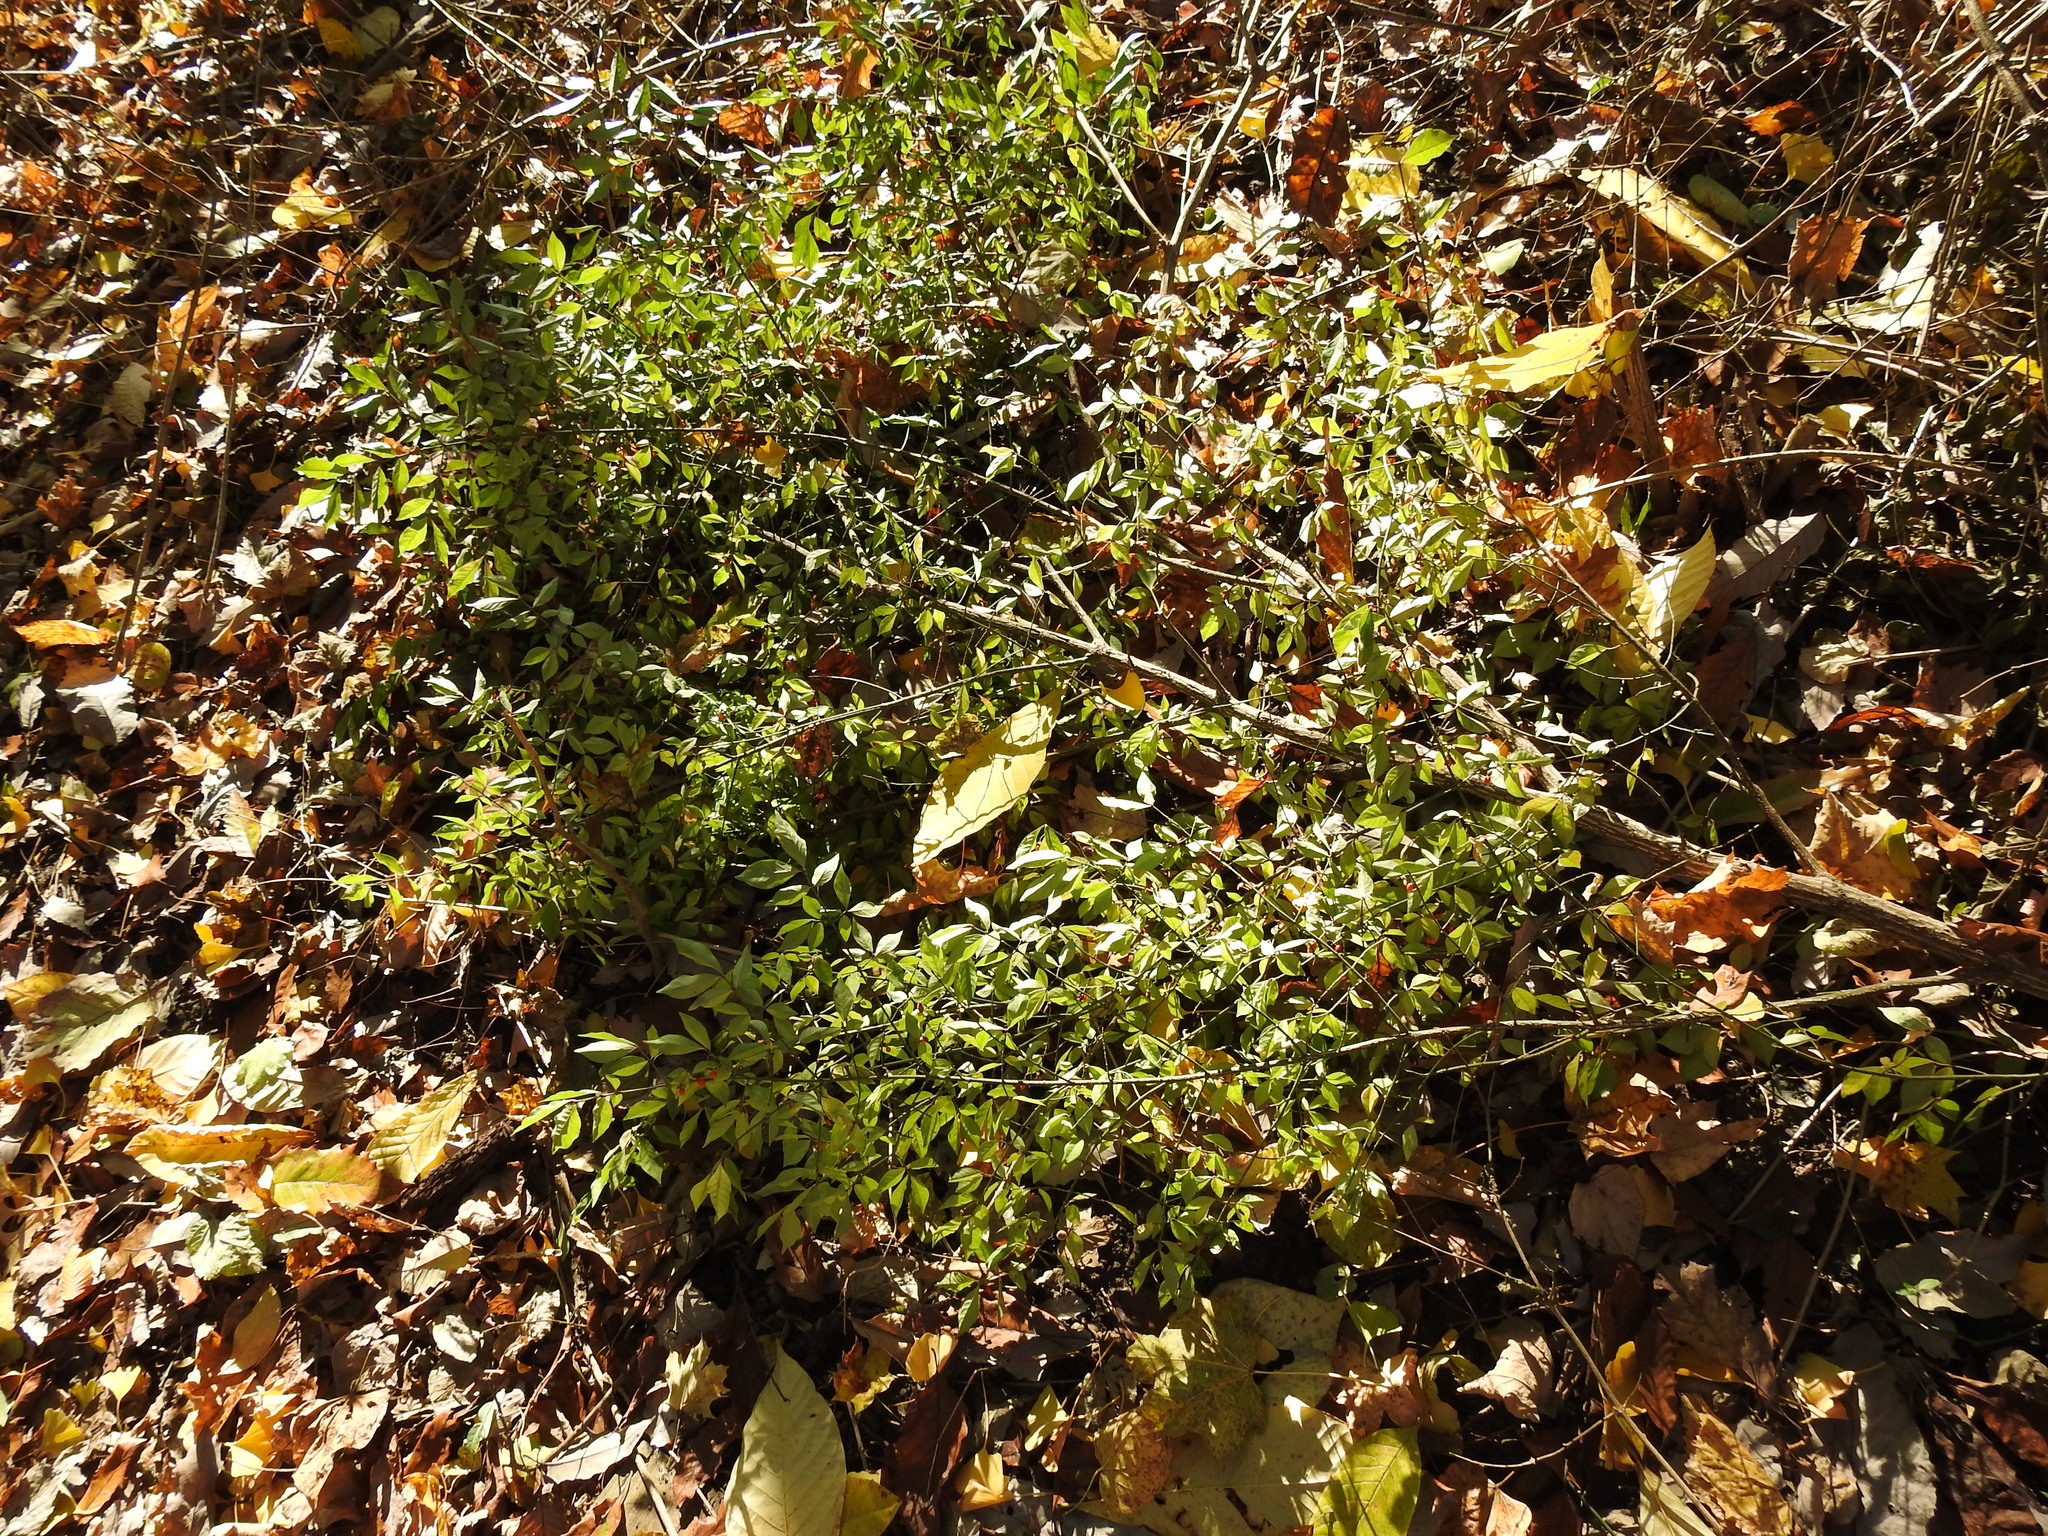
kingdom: Plantae
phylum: Tracheophyta
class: Magnoliopsida
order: Celastrales
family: Celastraceae
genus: Euonymus
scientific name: Euonymus alatus
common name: Winged euonymus
